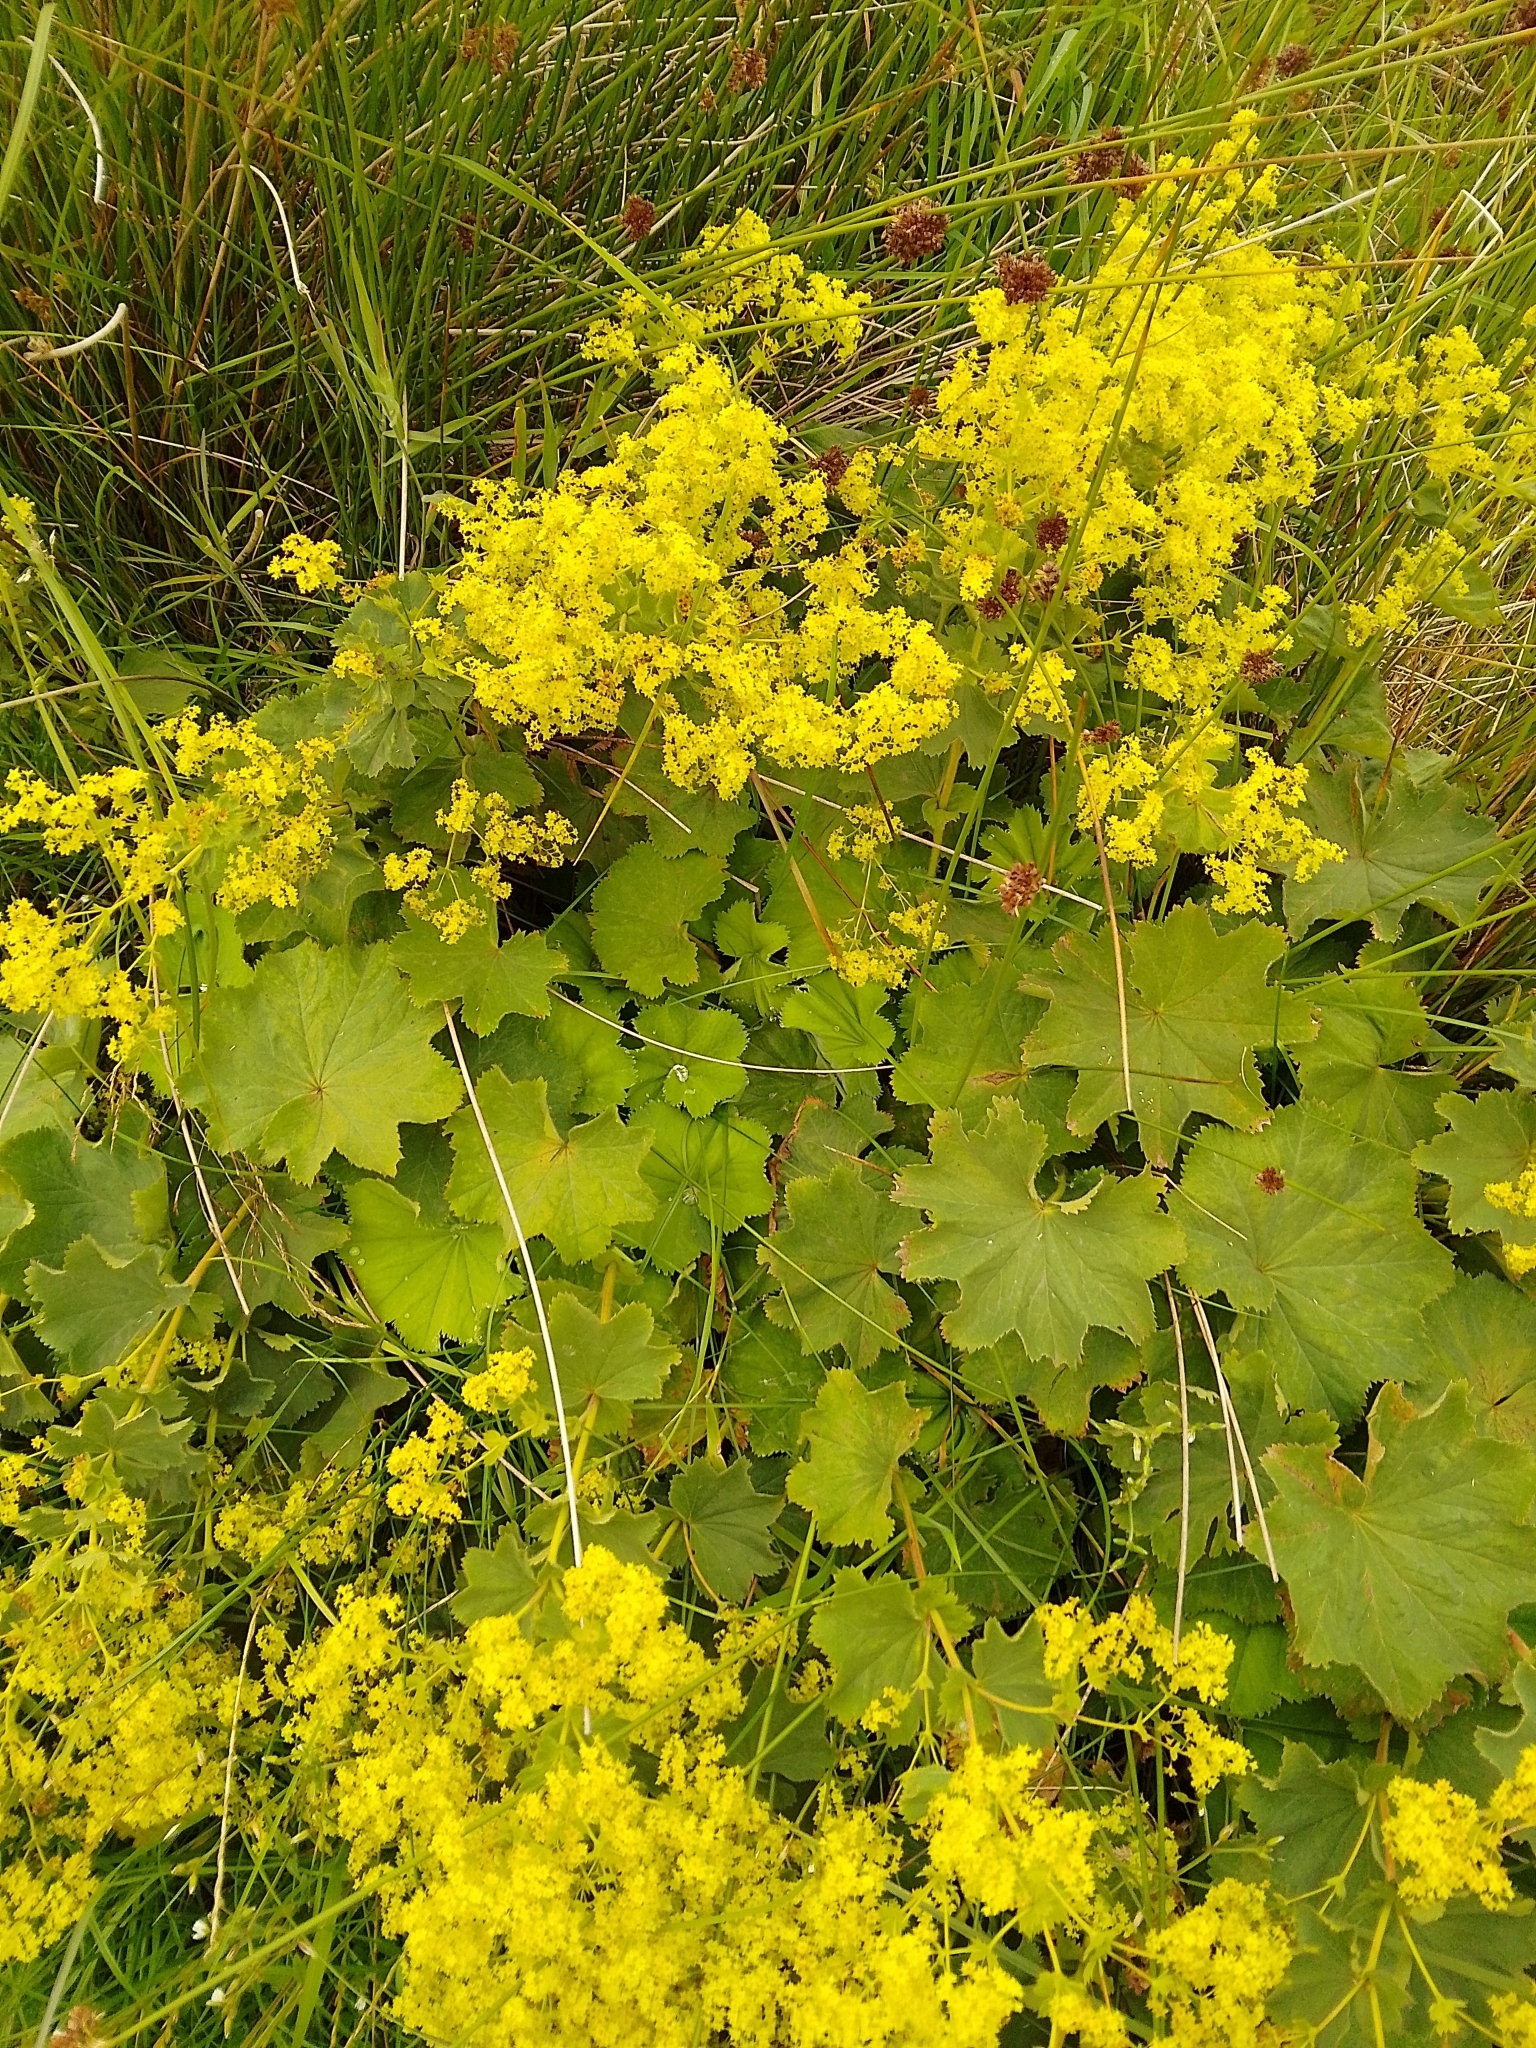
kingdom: Plantae
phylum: Tracheophyta
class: Magnoliopsida
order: Rosales
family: Rosaceae
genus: Alchemilla
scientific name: Alchemilla mollis
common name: Lady's-mantle
